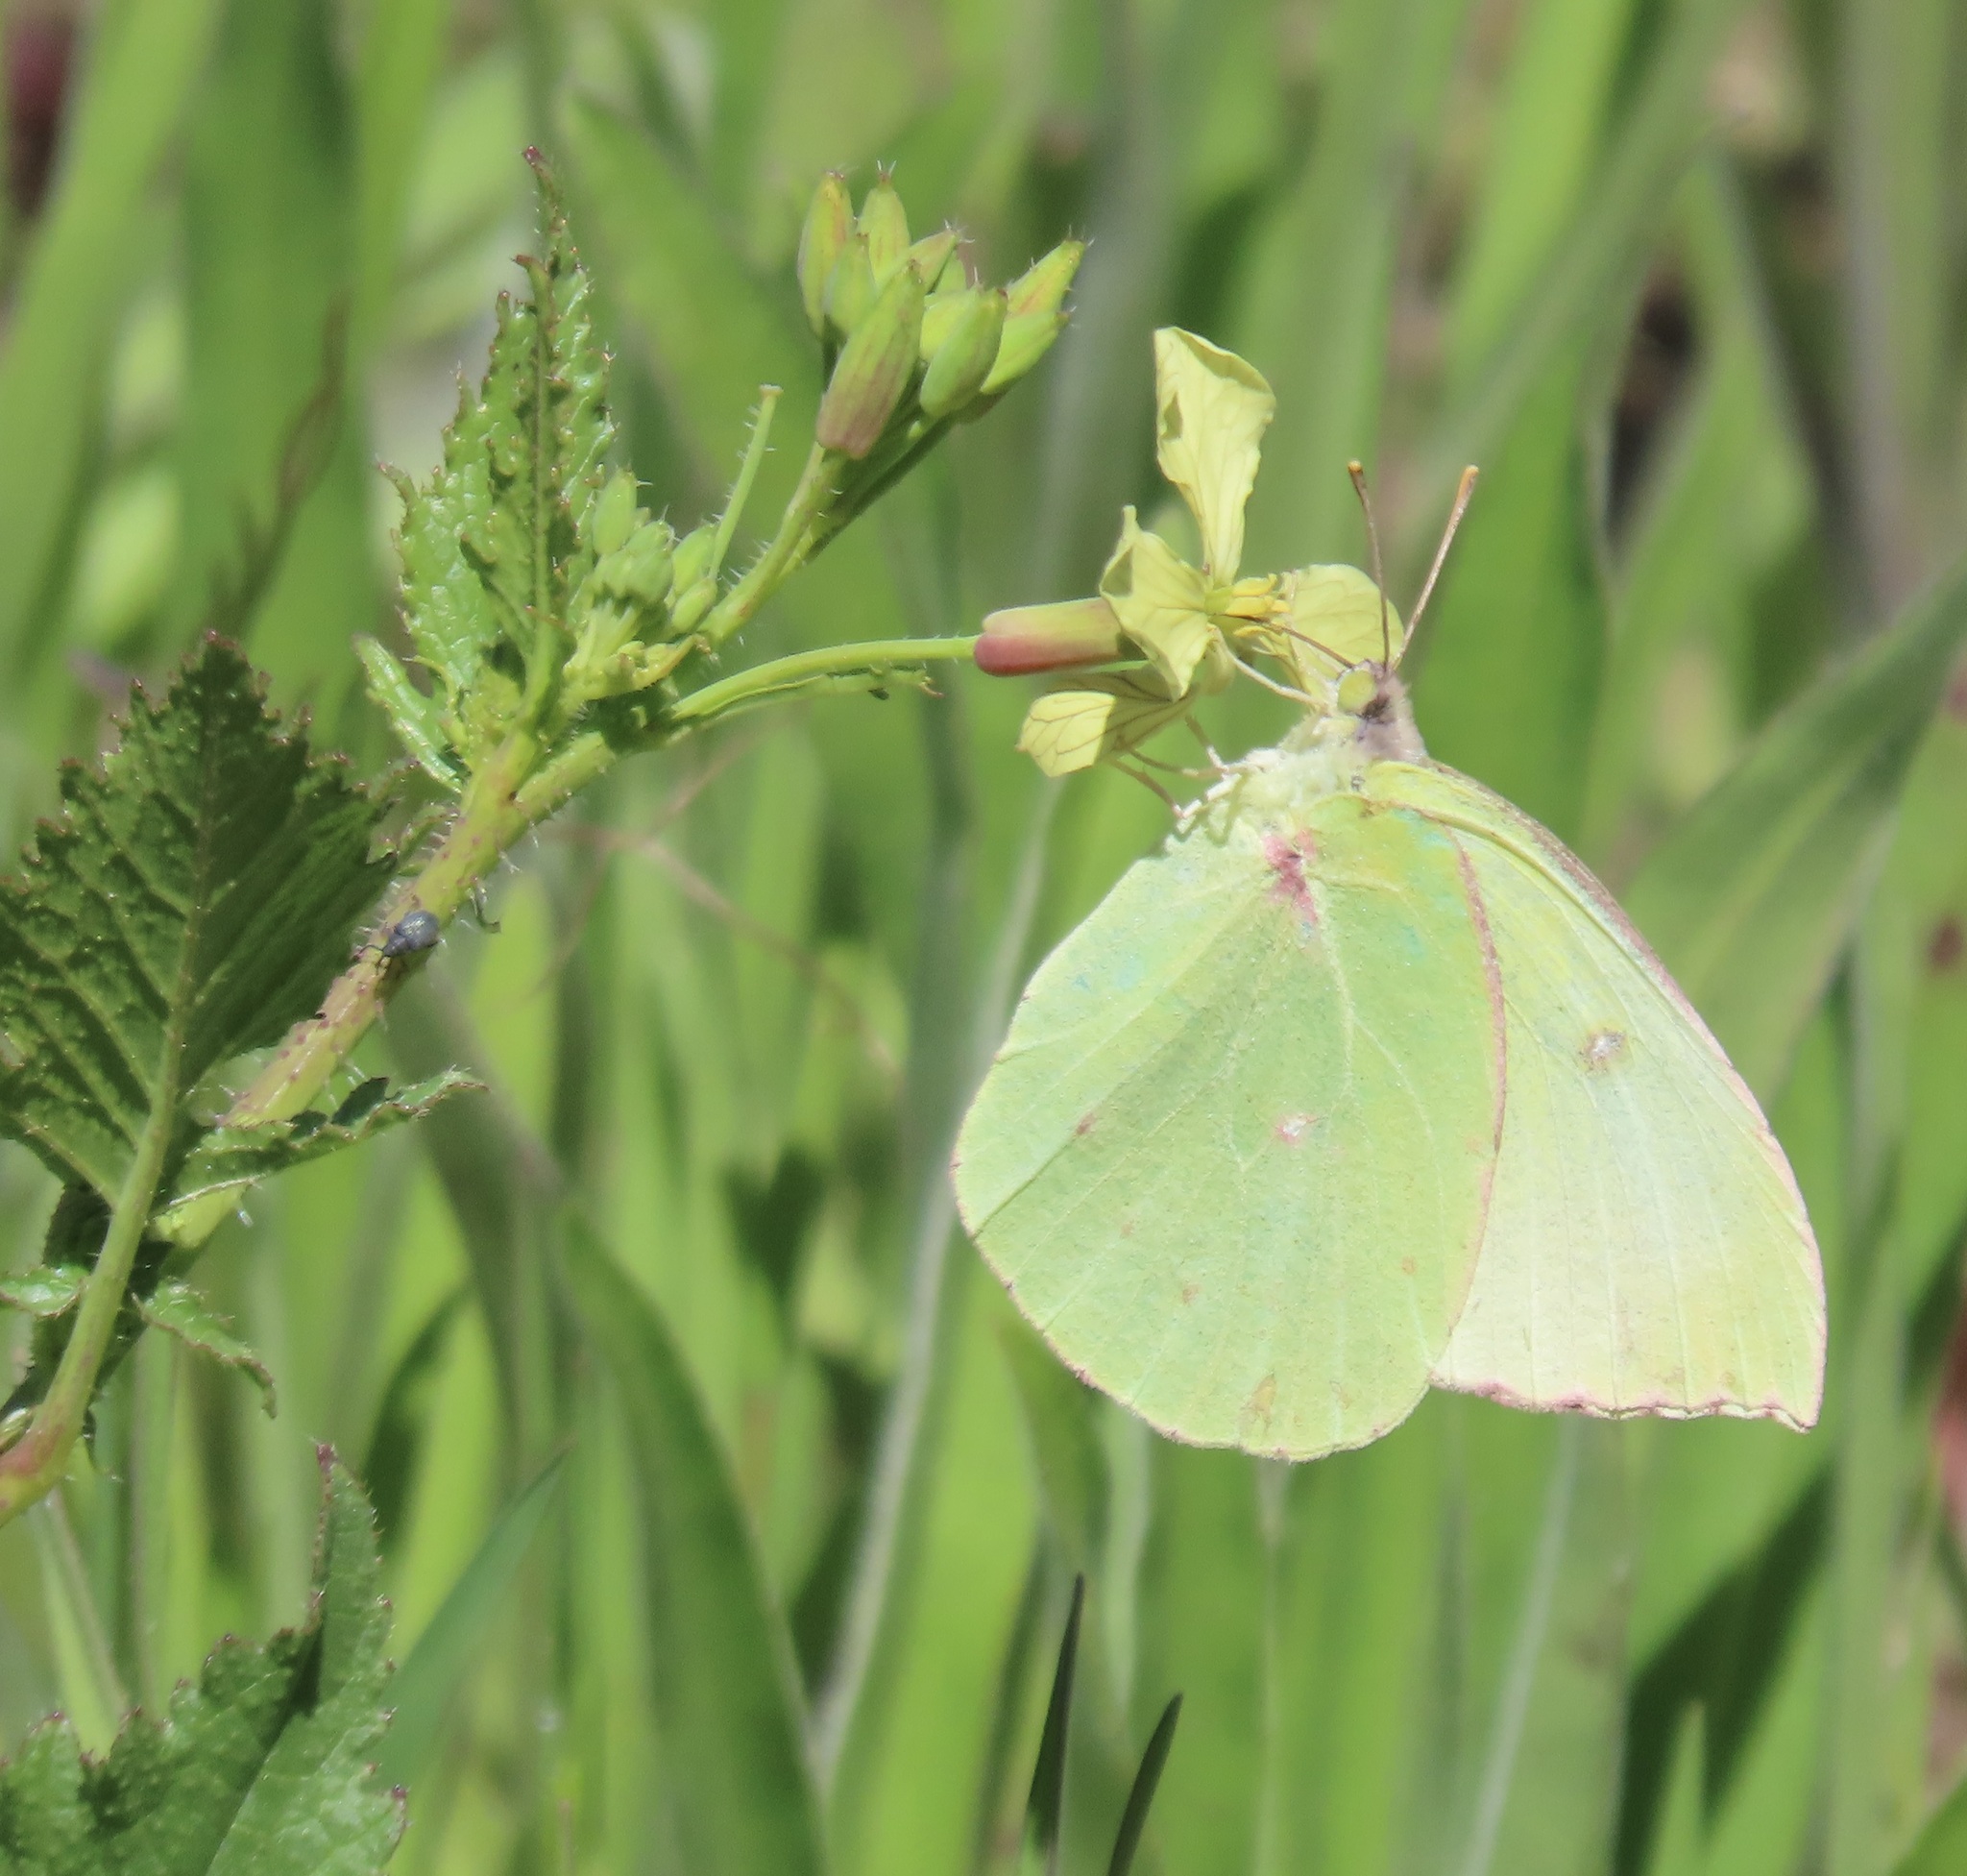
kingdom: Animalia
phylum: Arthropoda
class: Insecta
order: Lepidoptera
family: Pieridae
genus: Zerene
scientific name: Zerene eurydice
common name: California dogface
